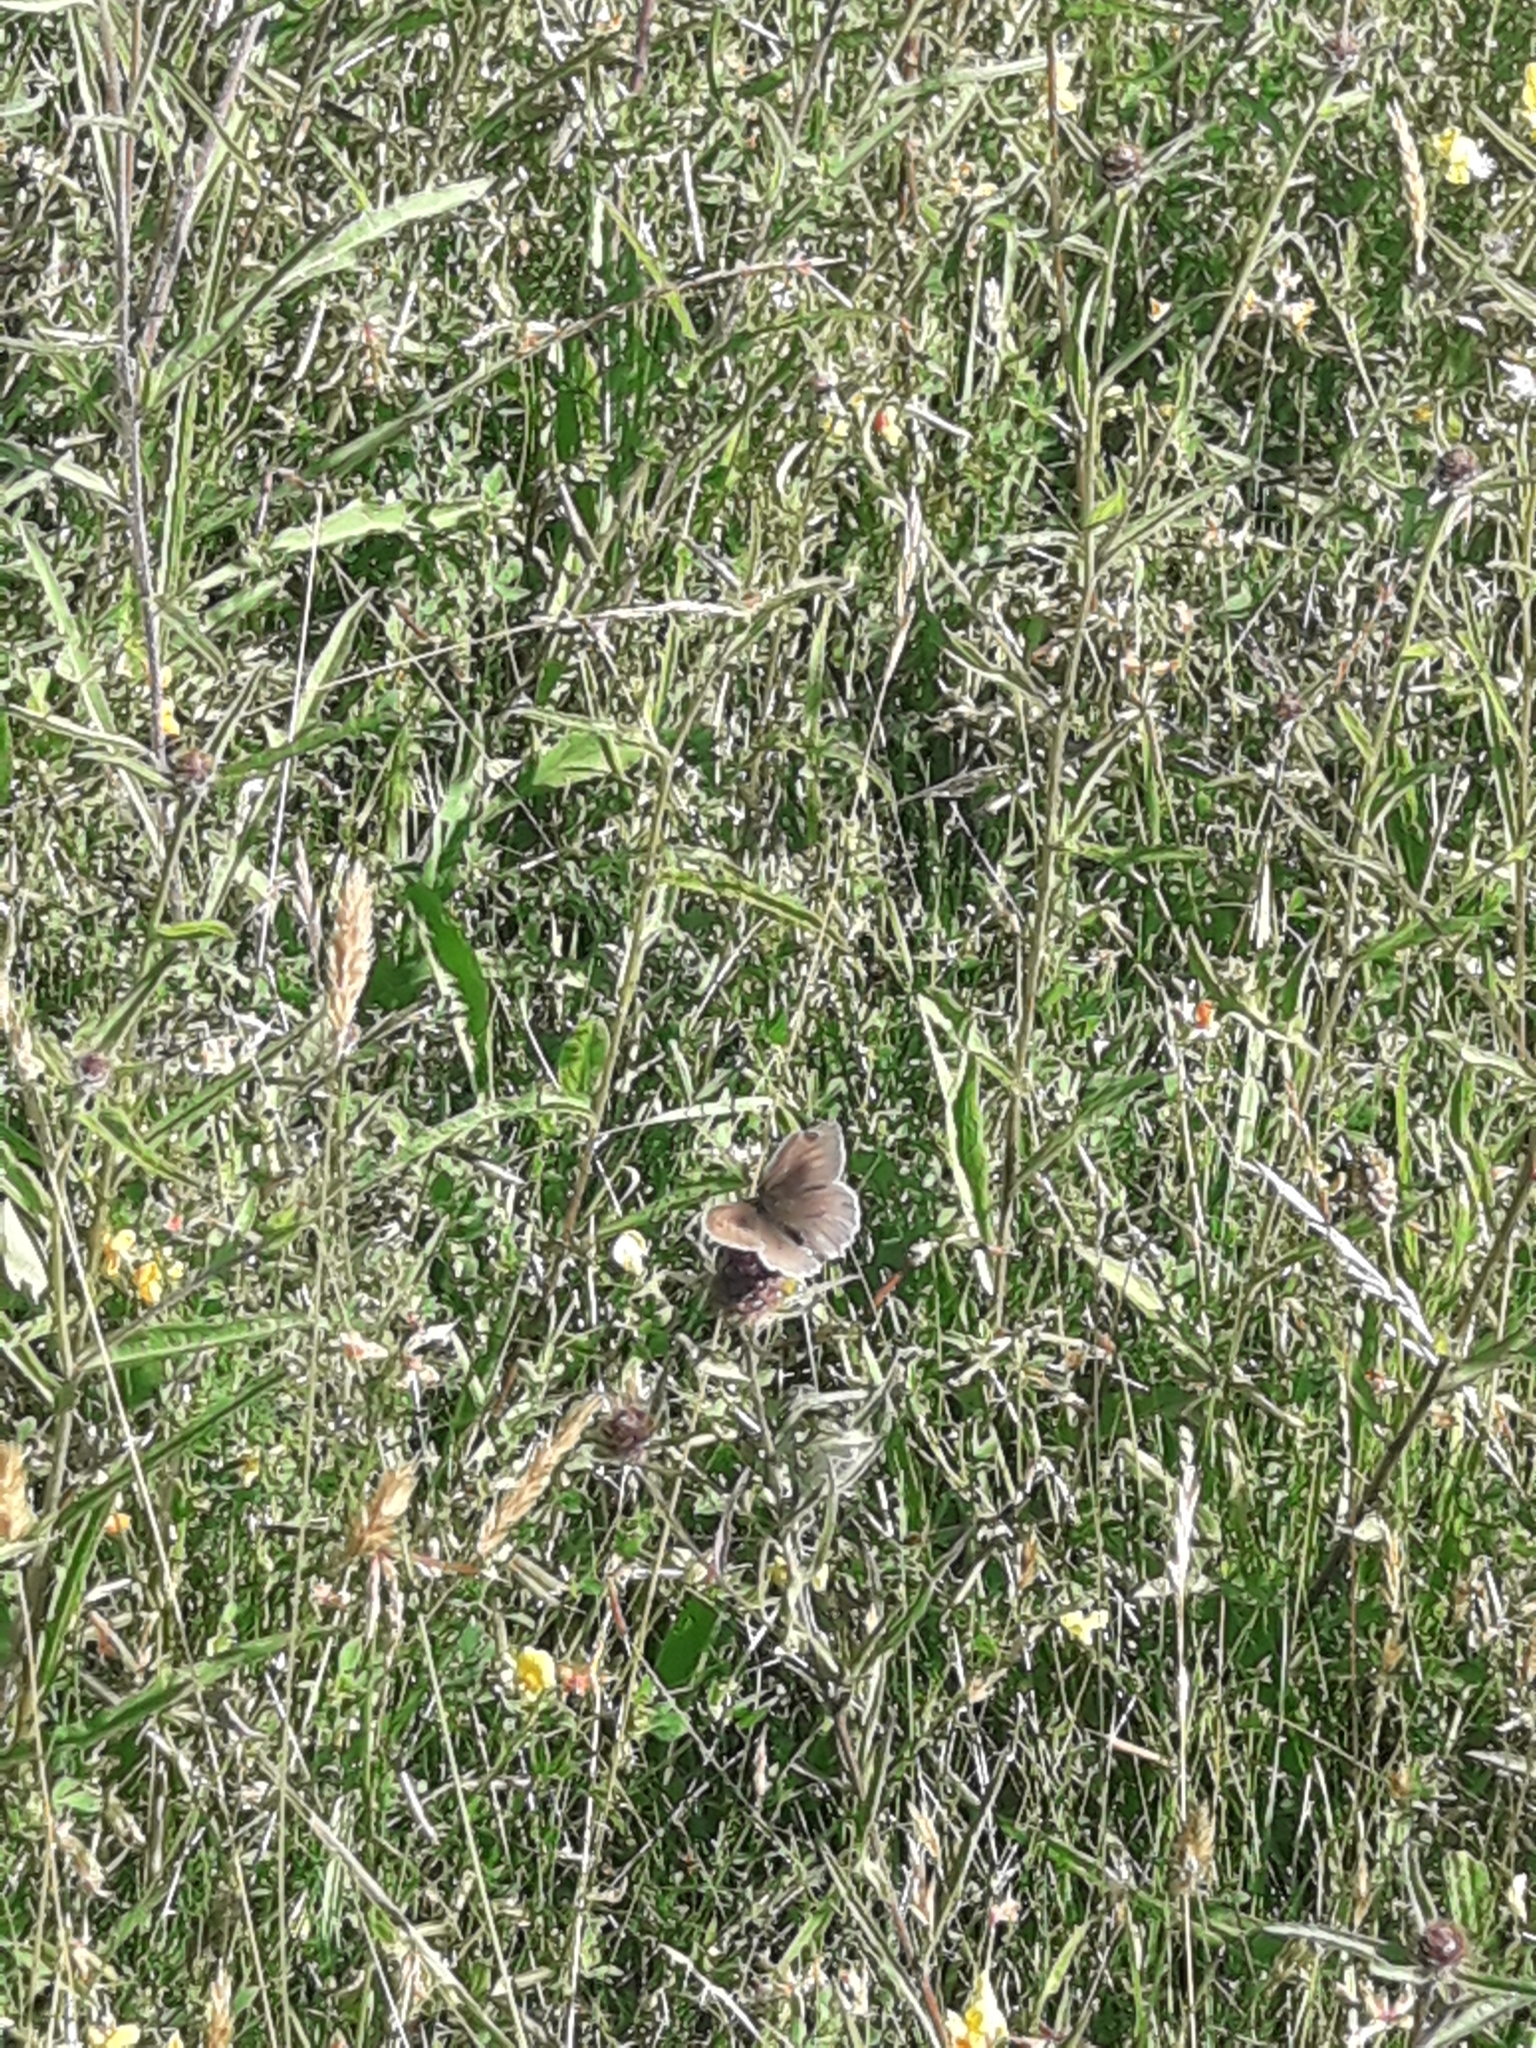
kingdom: Animalia
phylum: Arthropoda
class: Insecta
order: Lepidoptera
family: Nymphalidae
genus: Maniola
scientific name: Maniola jurtina
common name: Meadow brown
